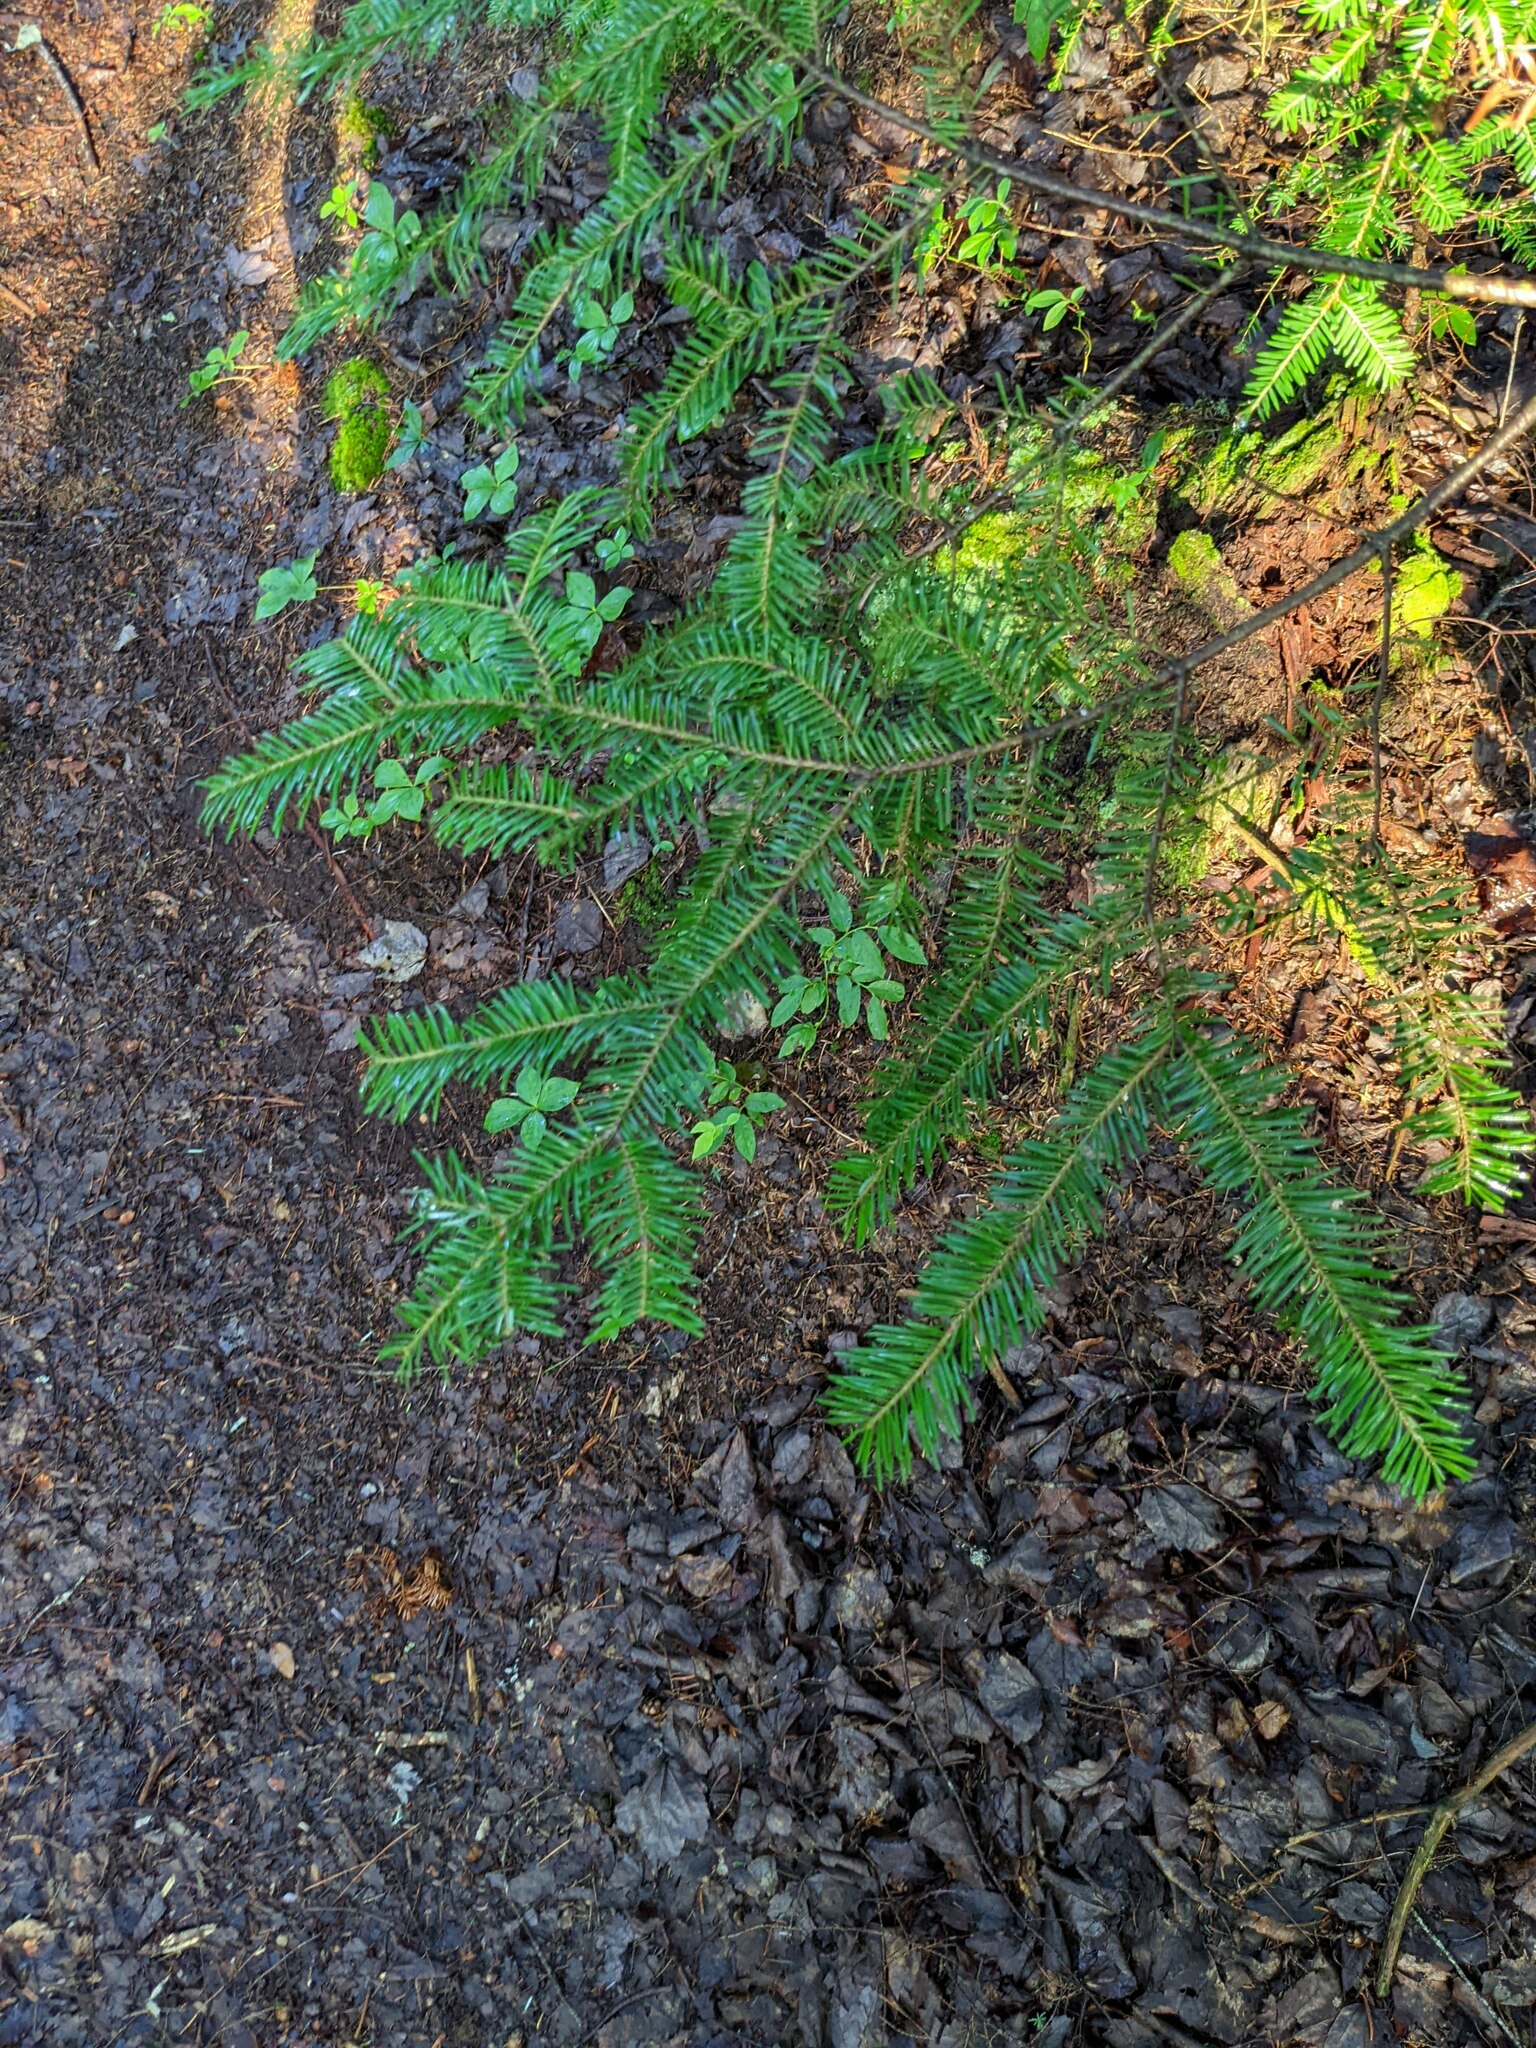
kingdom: Plantae
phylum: Tracheophyta
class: Pinopsida
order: Pinales
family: Pinaceae
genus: Abies
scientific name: Abies balsamea
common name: Balsam fir
